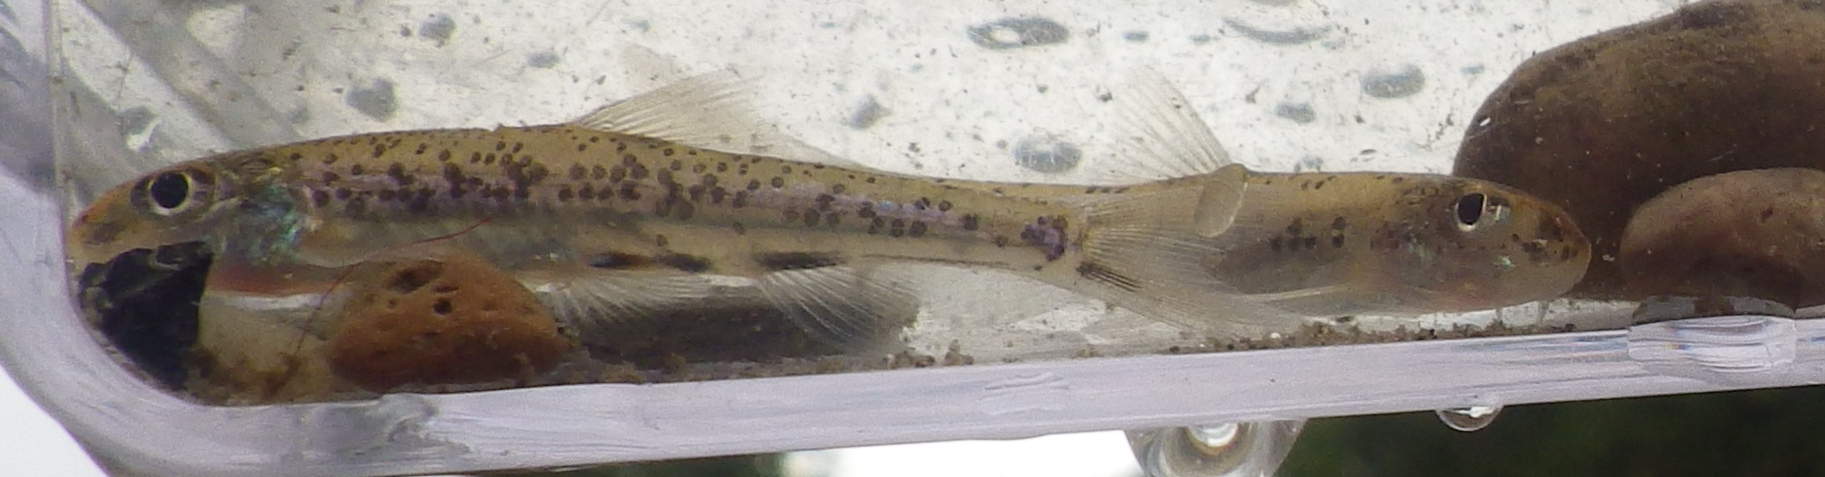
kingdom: Animalia
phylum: Chordata
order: Cypriniformes
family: Cyprinidae
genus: Macrhybopsis
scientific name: Macrhybopsis hyostoma
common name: Shoal chub
